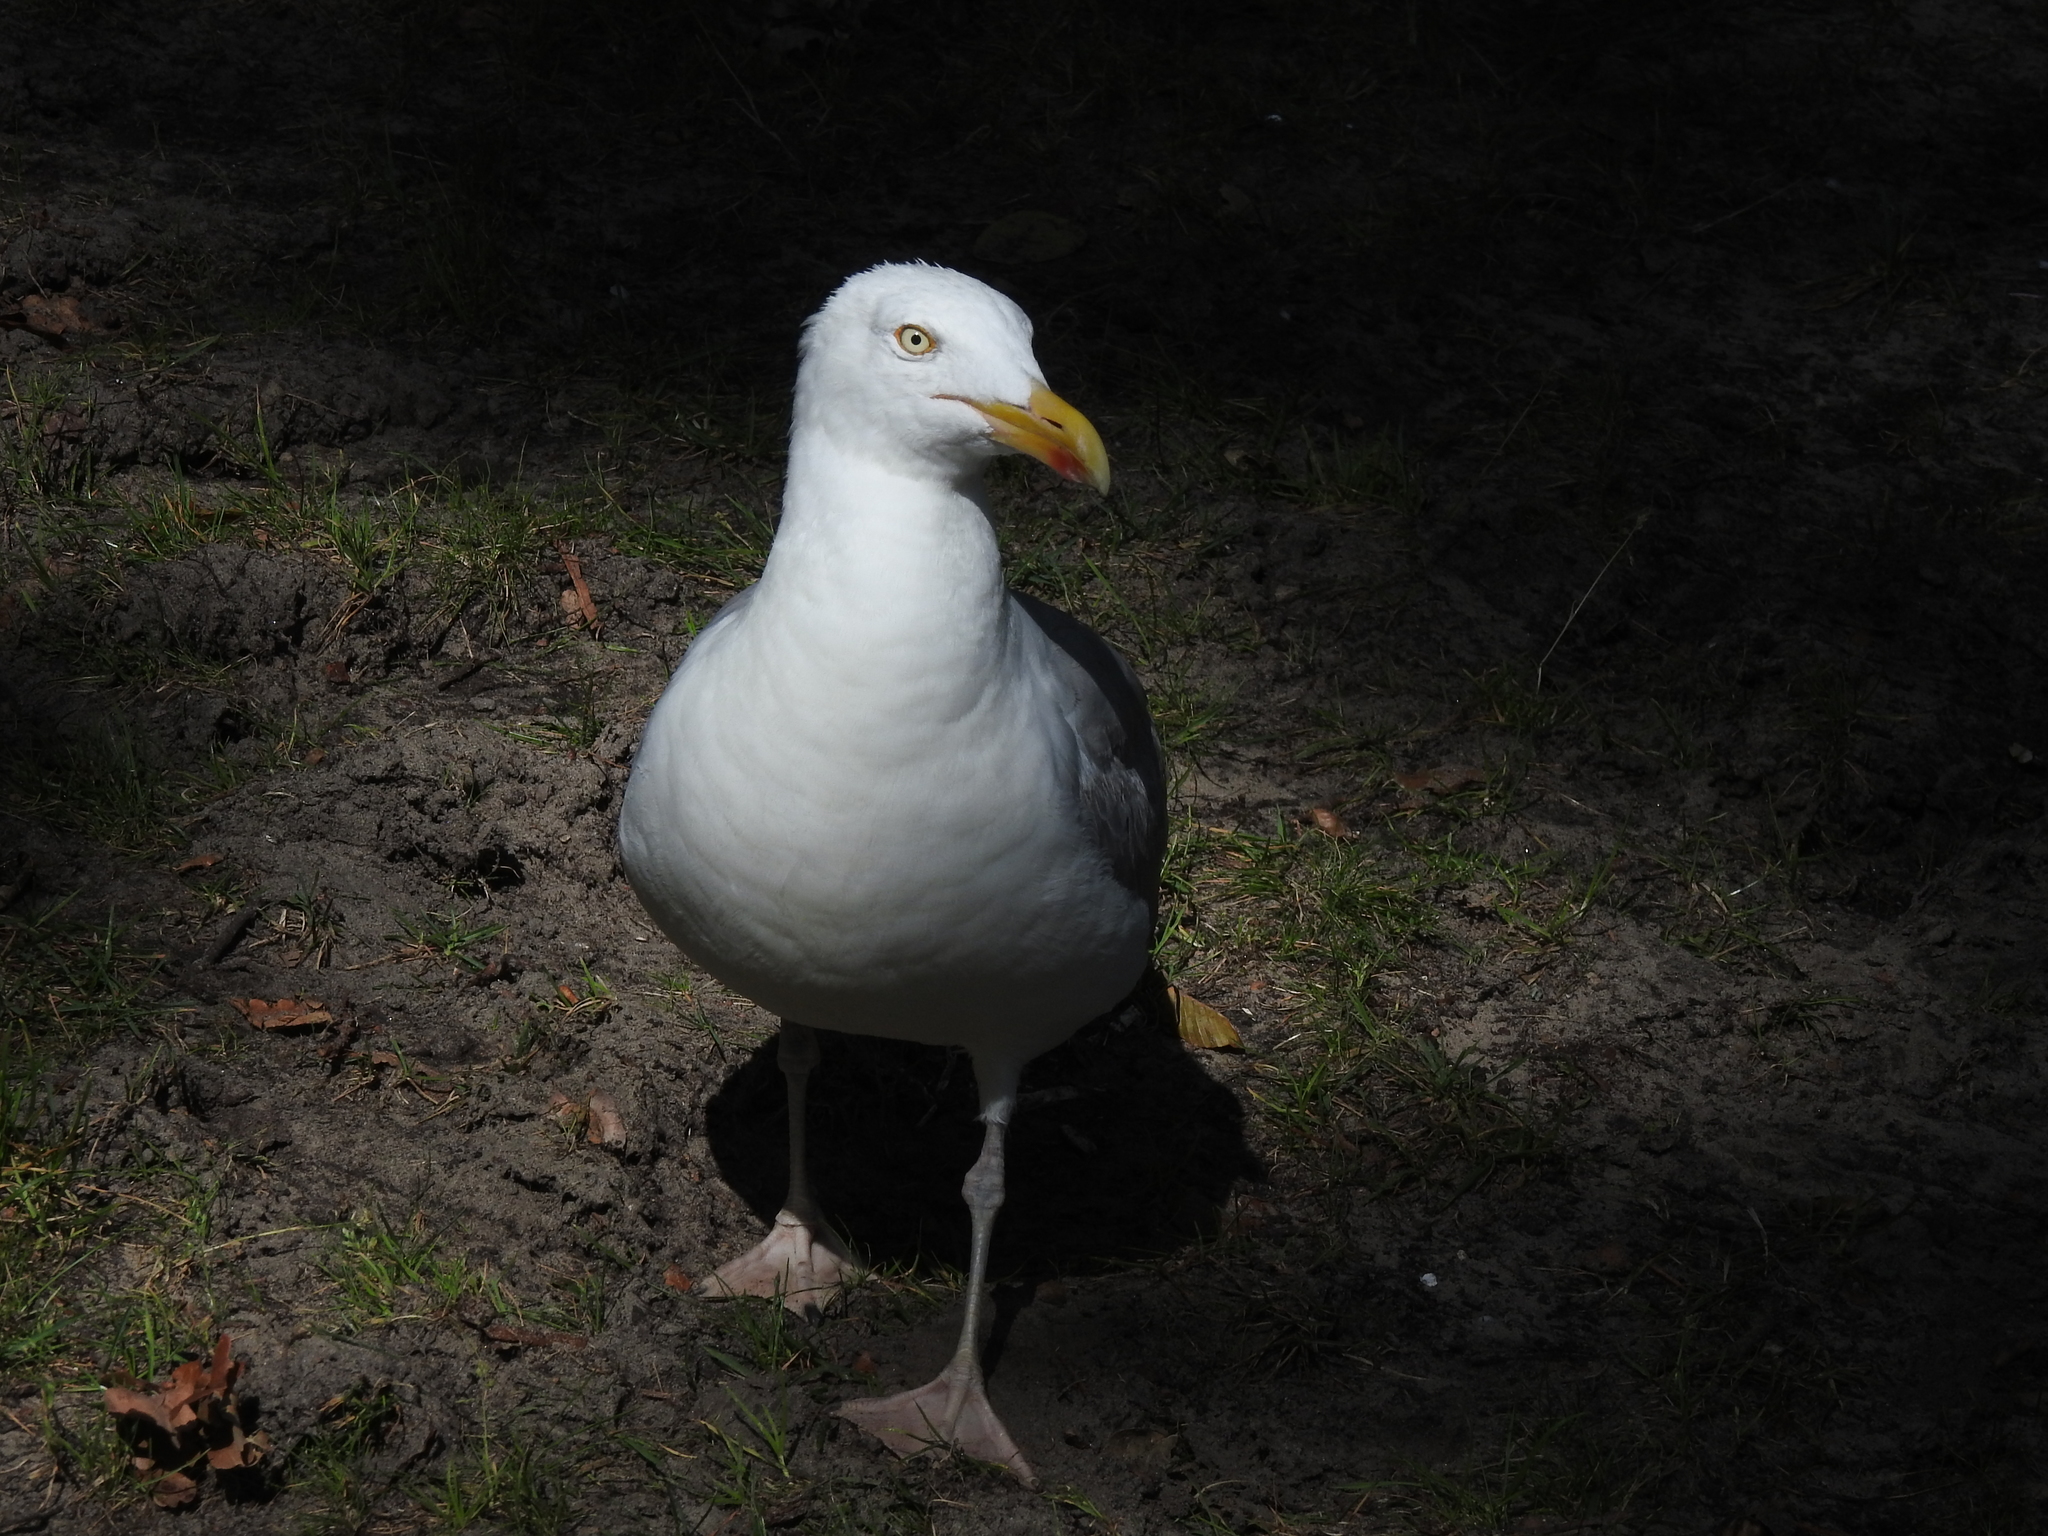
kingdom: Animalia
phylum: Chordata
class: Aves
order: Charadriiformes
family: Laridae
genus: Larus
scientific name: Larus argentatus
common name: Herring gull
